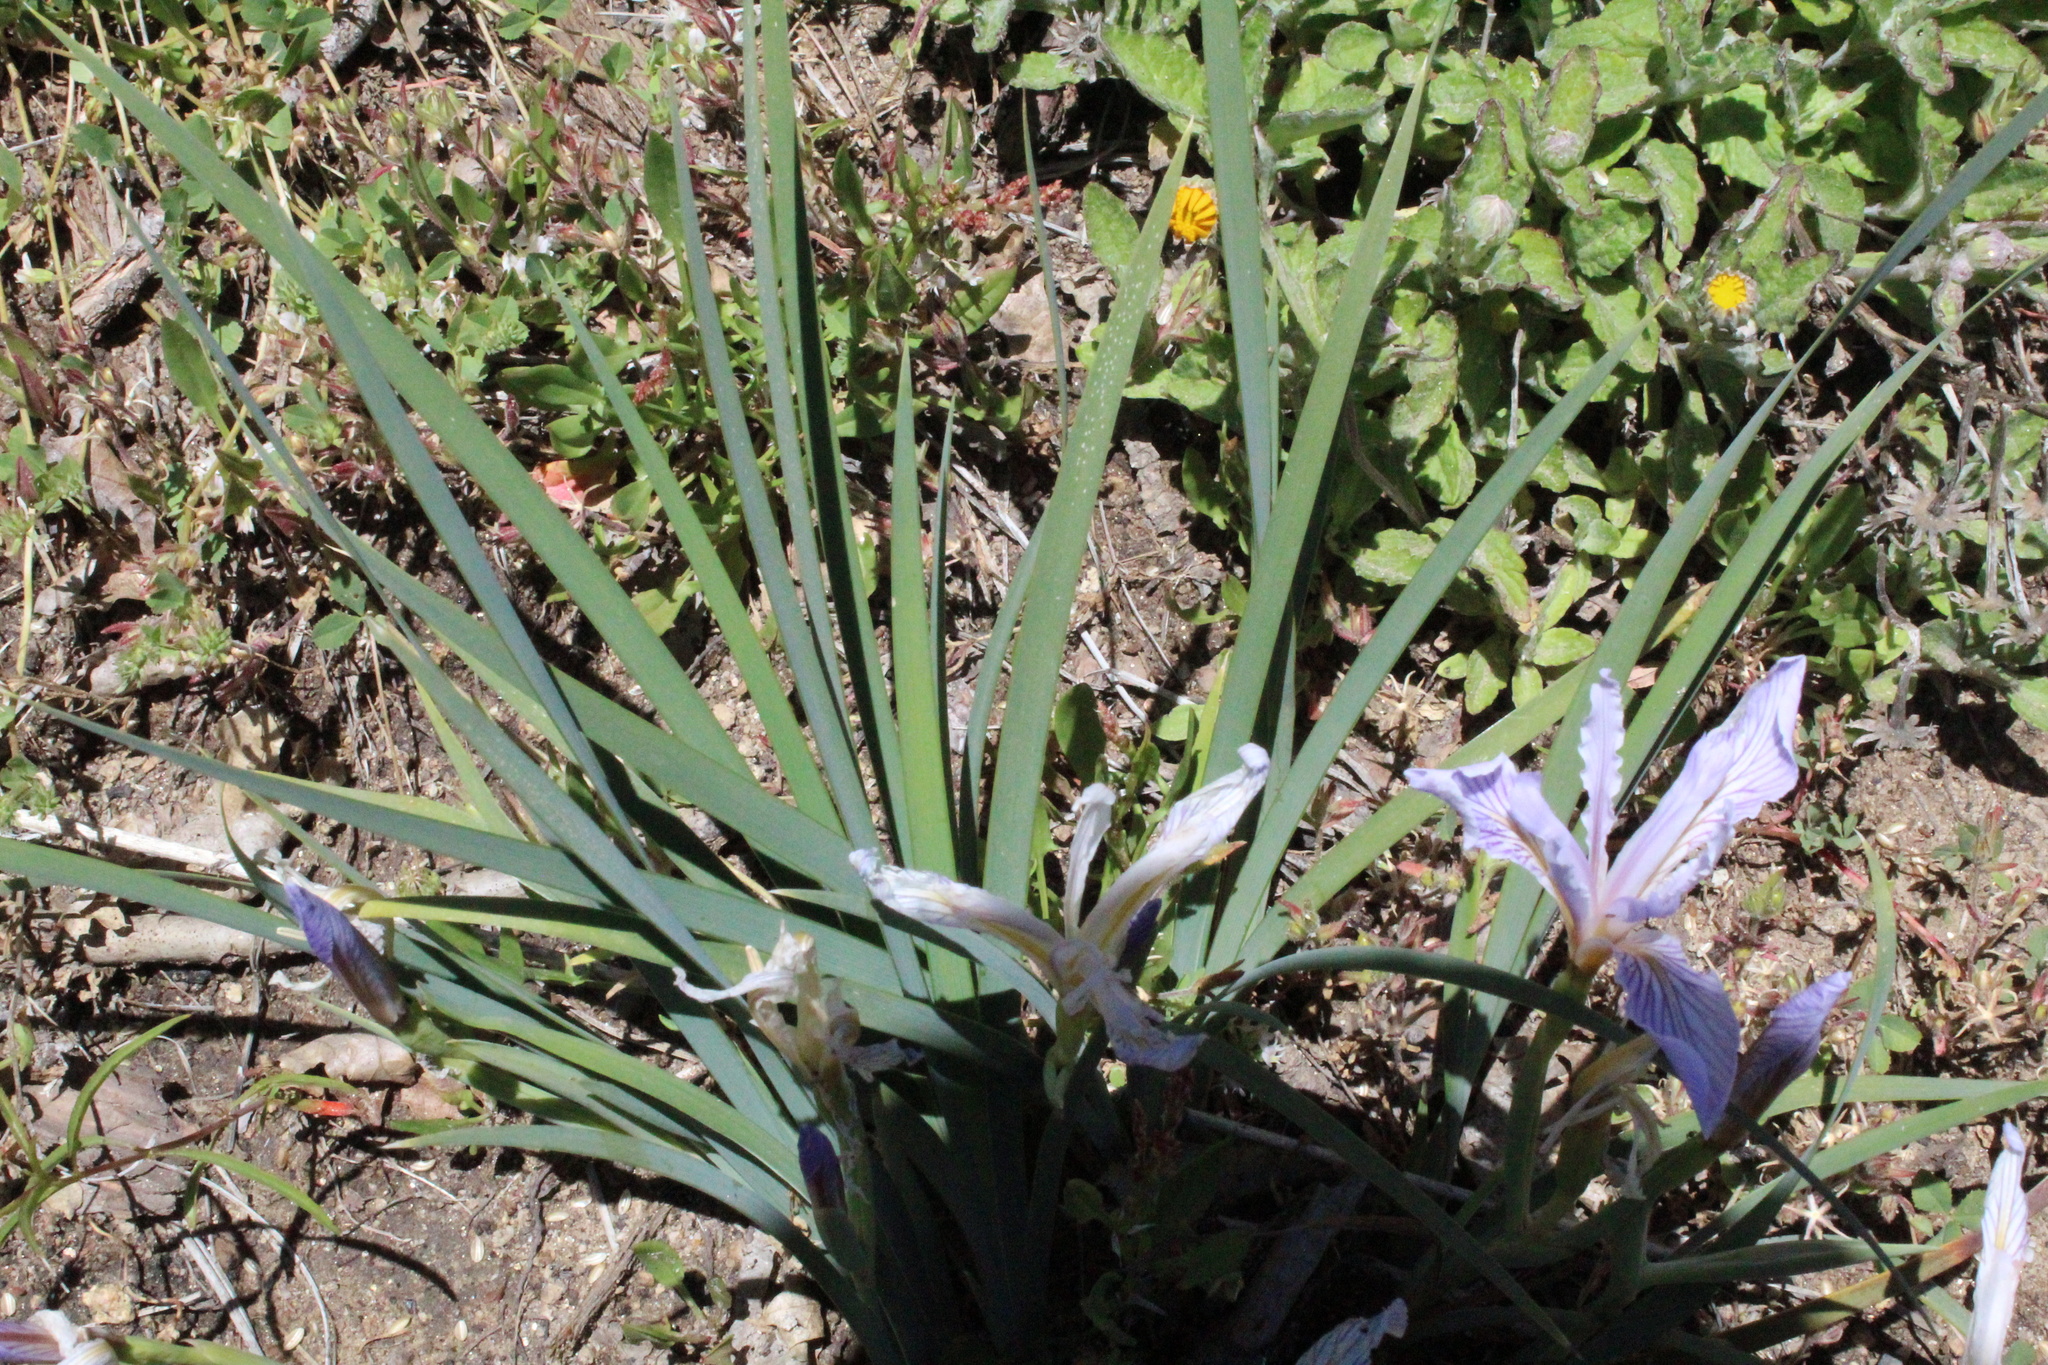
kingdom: Plantae
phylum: Tracheophyta
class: Liliopsida
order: Asparagales
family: Iridaceae
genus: Iris
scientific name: Iris hartwegii
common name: Sierra iris
